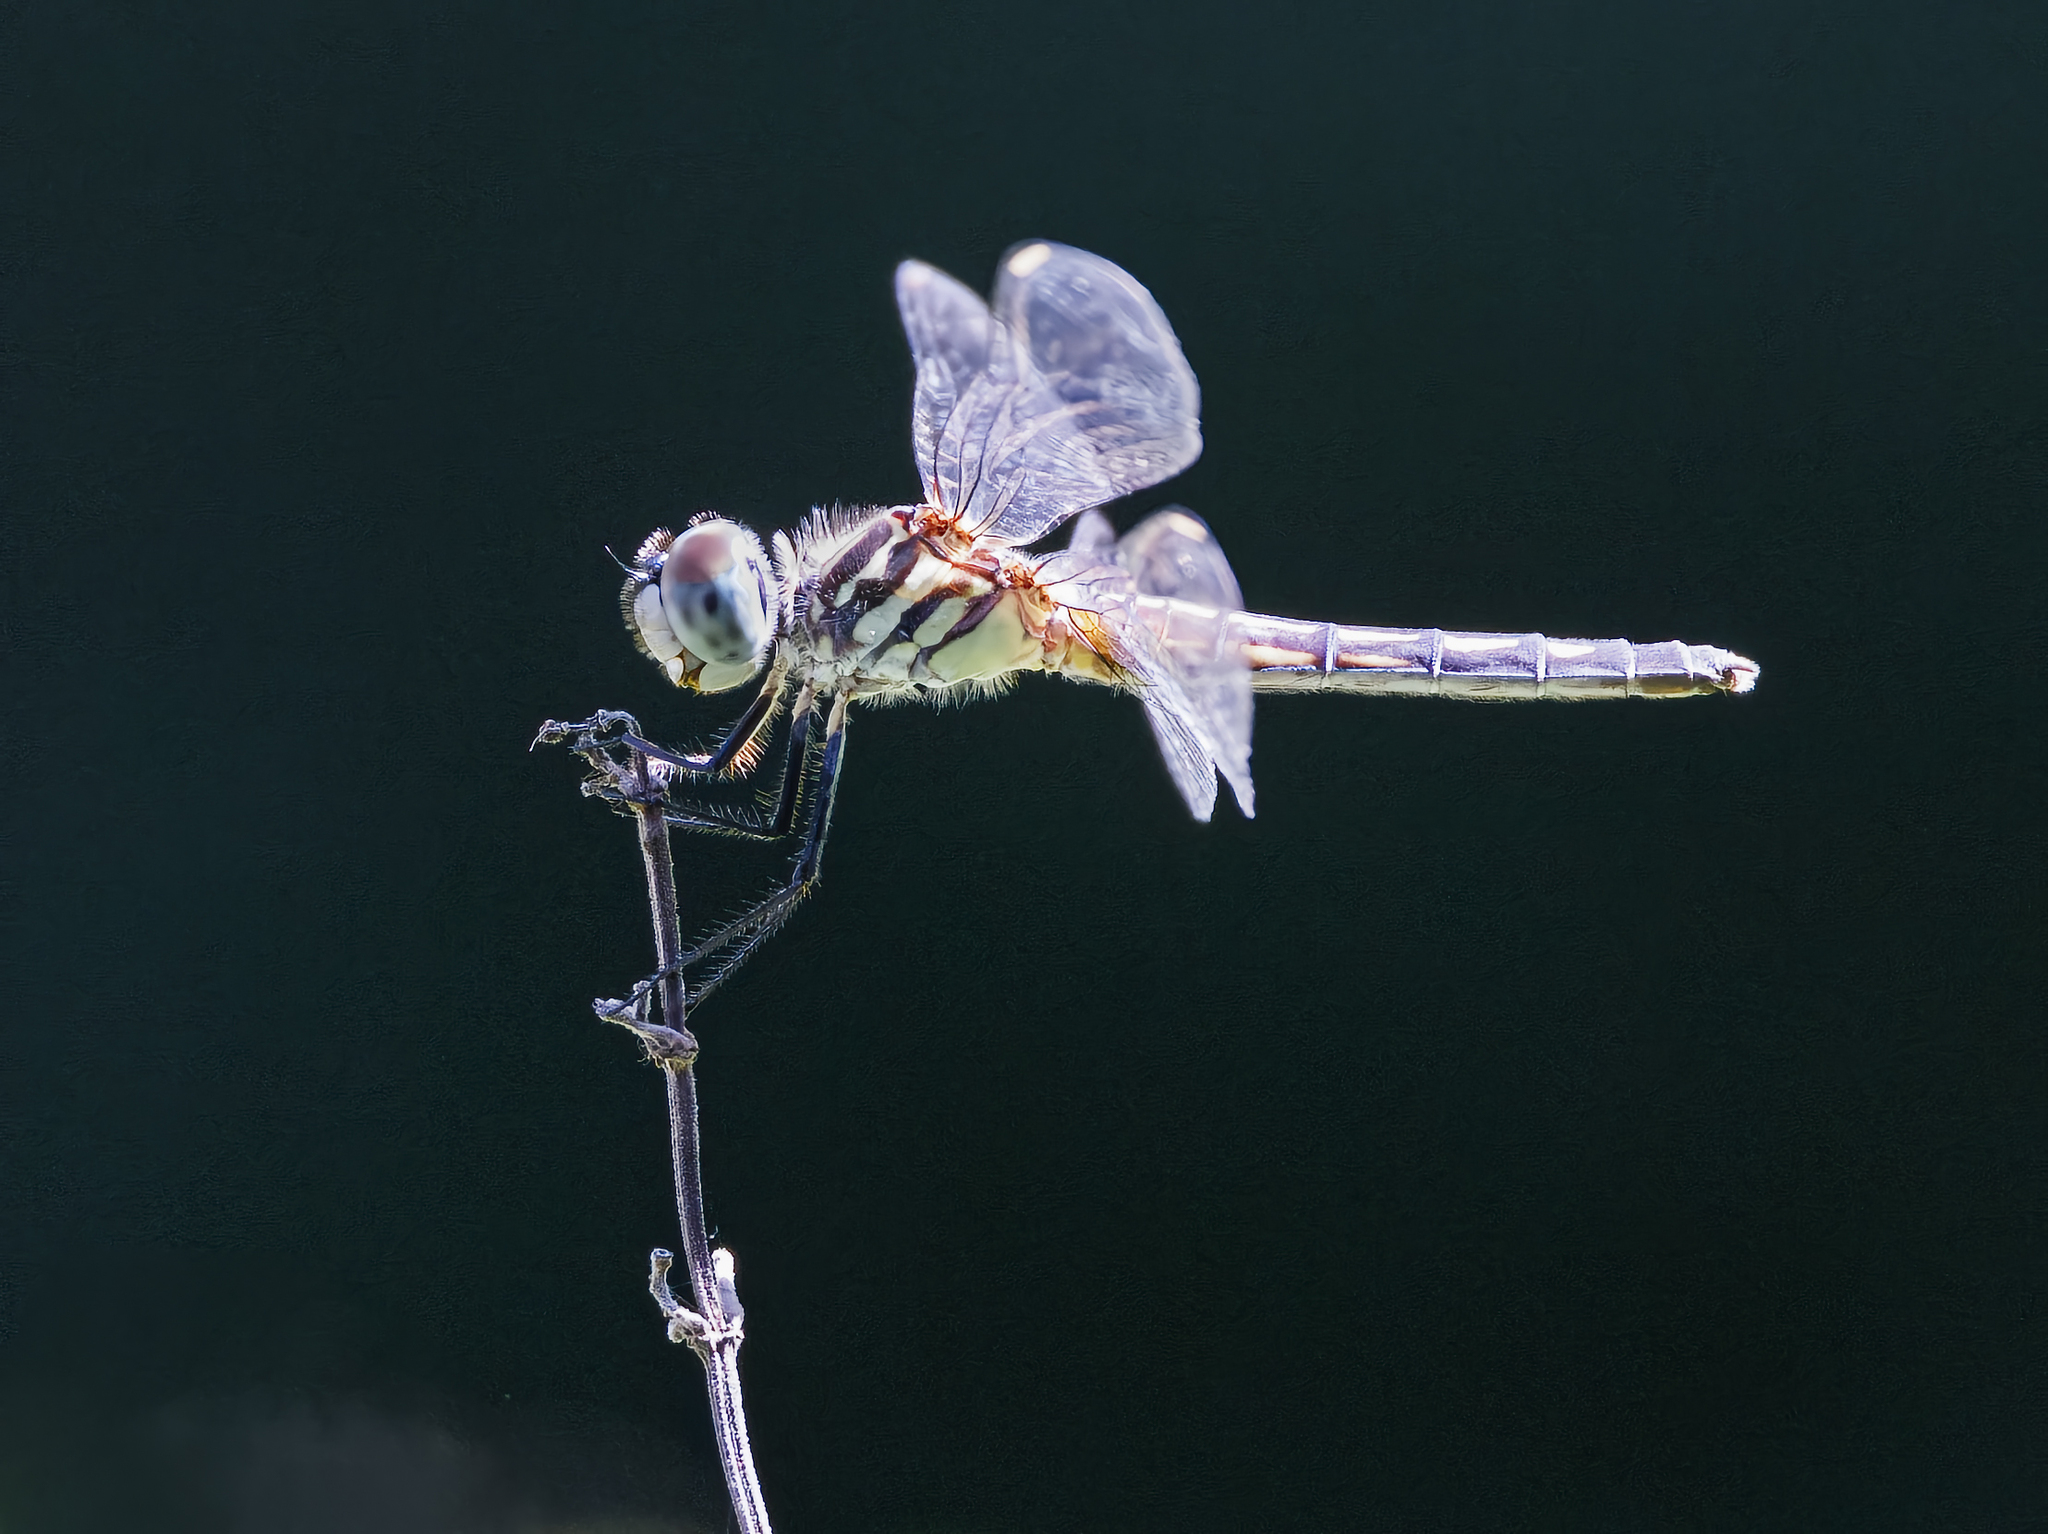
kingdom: Animalia
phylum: Arthropoda
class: Insecta
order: Odonata
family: Libellulidae
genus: Pachydiplax
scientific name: Pachydiplax longipennis
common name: Blue dasher
